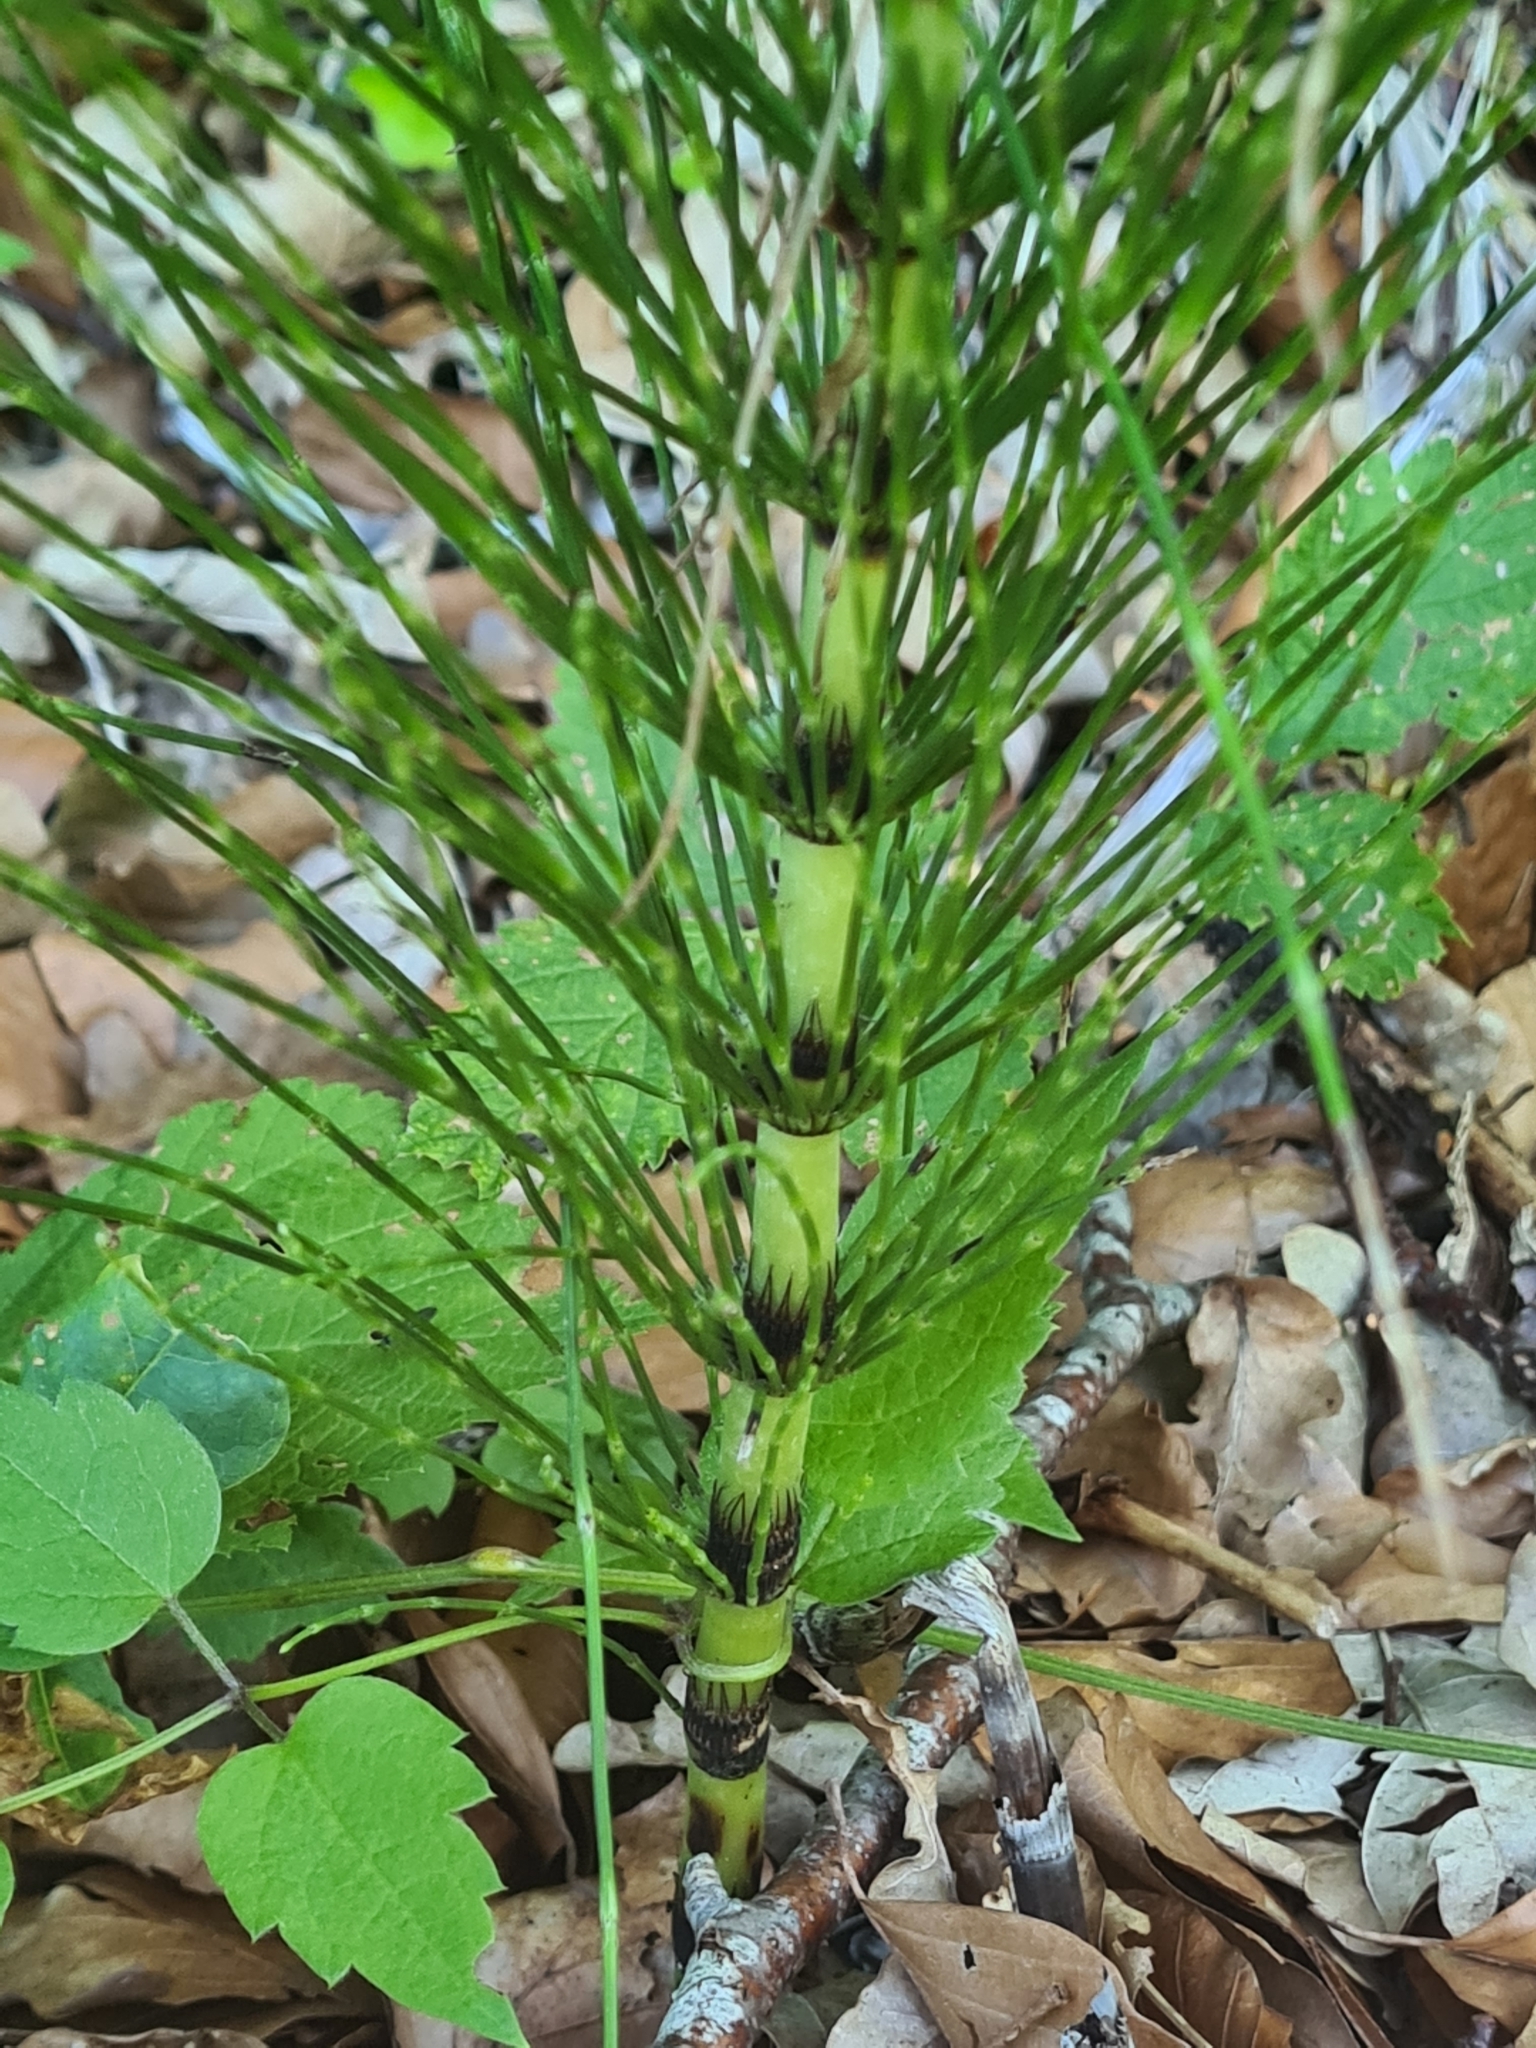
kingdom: Plantae
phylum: Tracheophyta
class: Polypodiopsida
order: Equisetales
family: Equisetaceae
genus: Equisetum
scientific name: Equisetum telmateia
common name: Great horsetail
